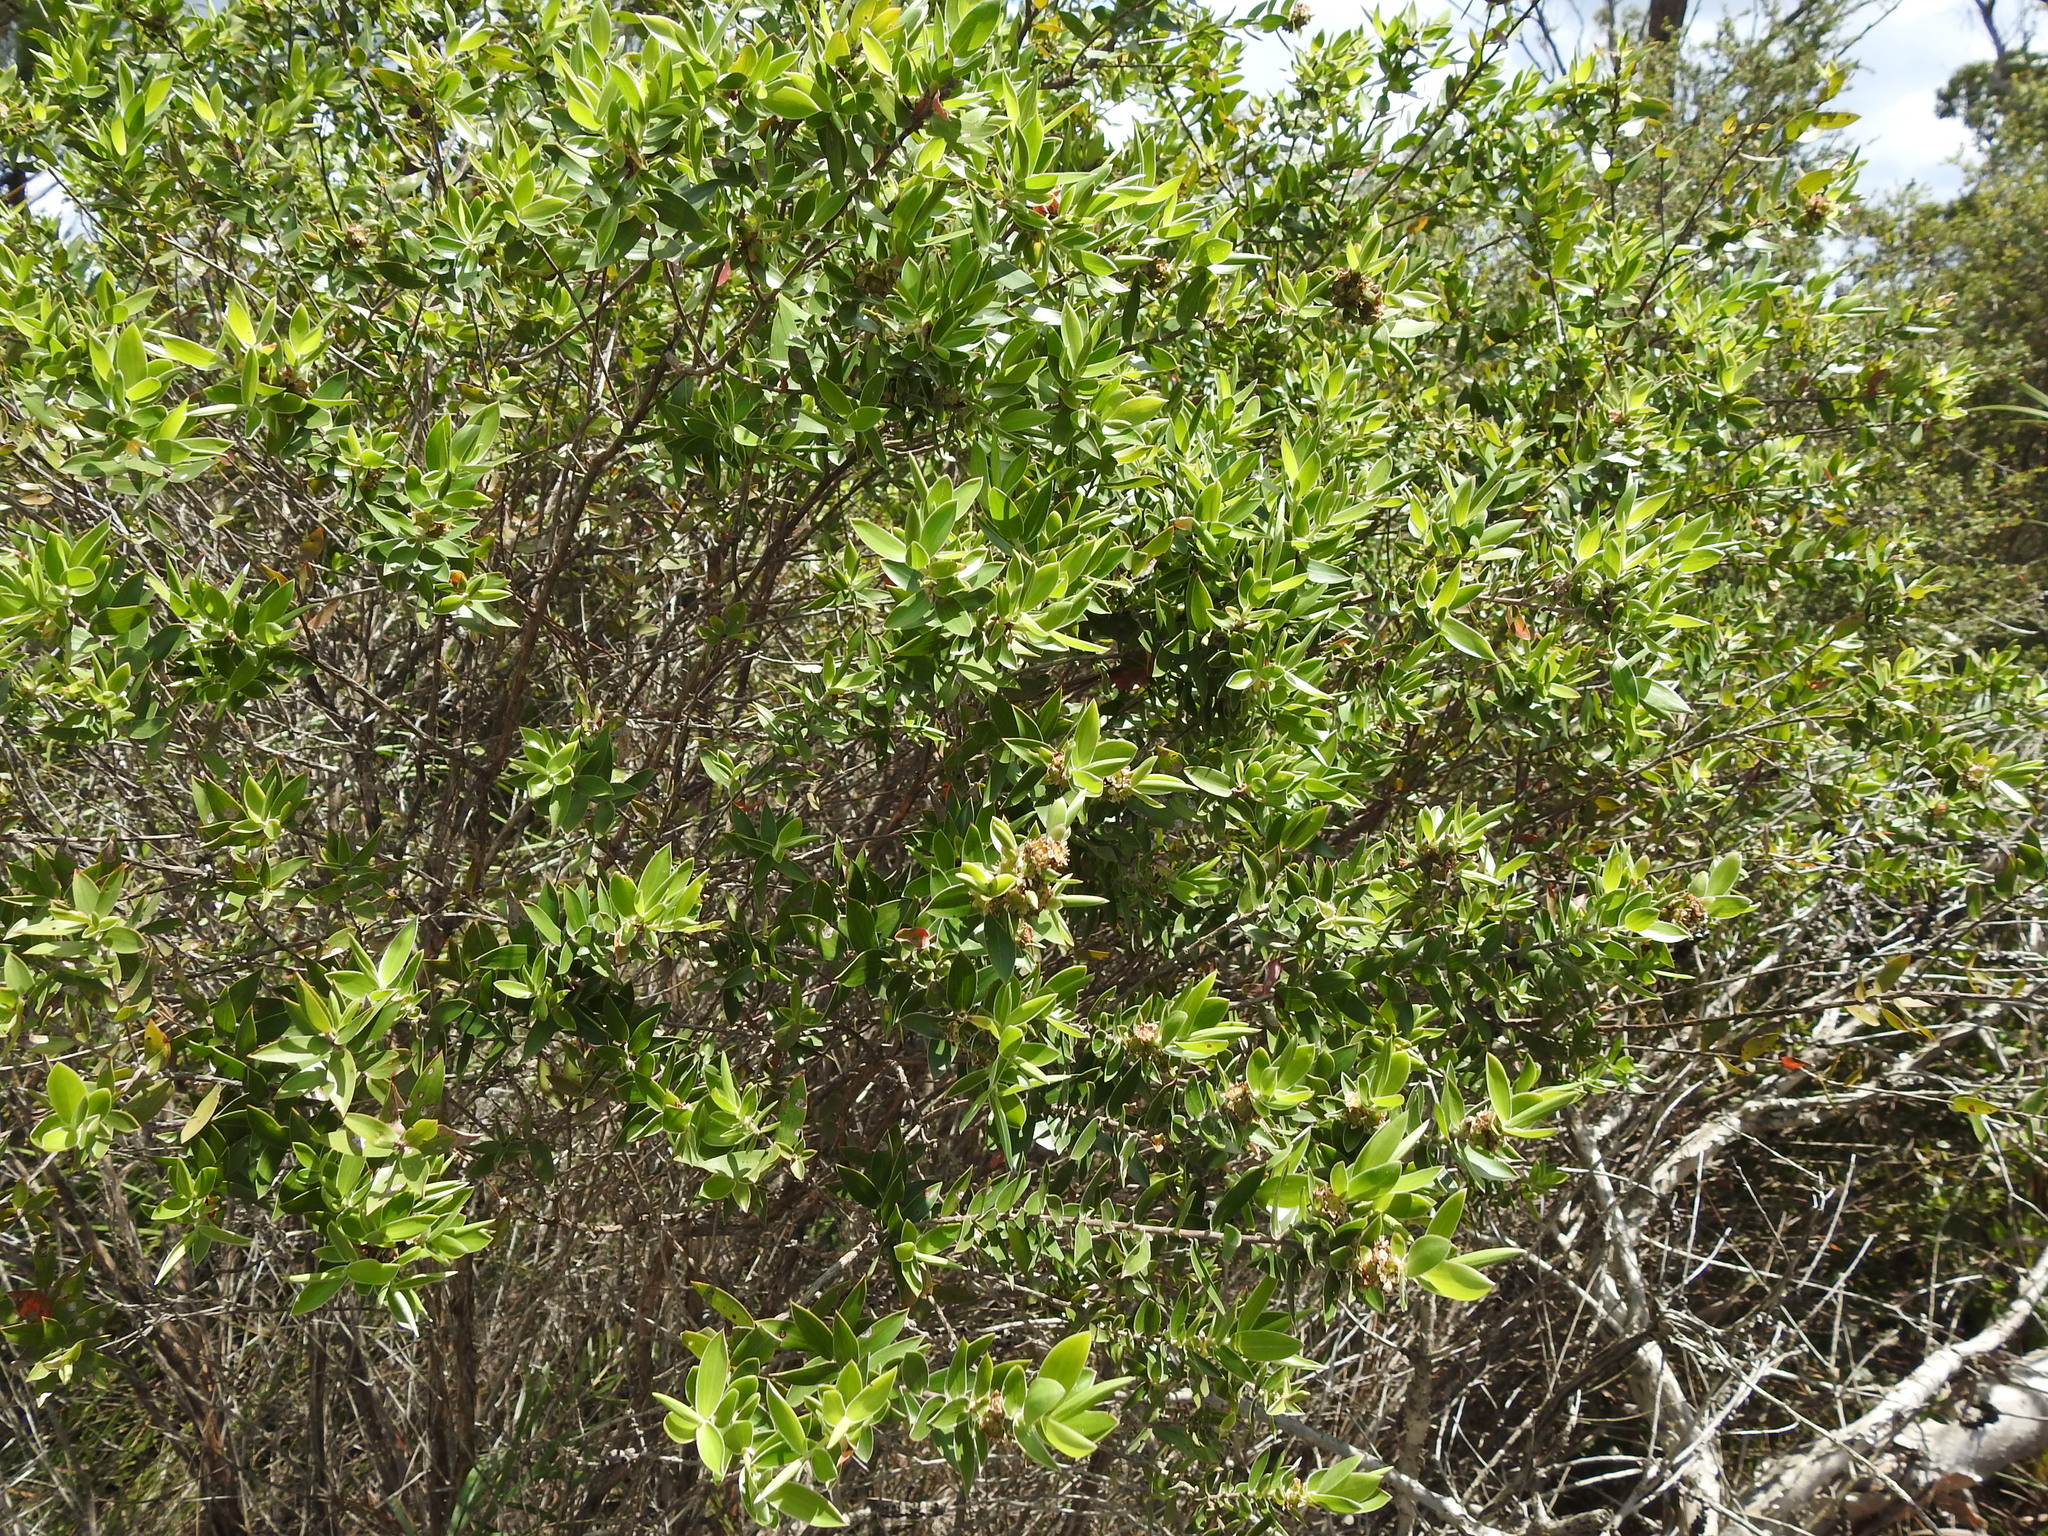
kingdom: Plantae
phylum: Tracheophyta
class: Magnoliopsida
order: Myrtales
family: Myrtaceae
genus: Leptospermum
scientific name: Leptospermum speciosum
